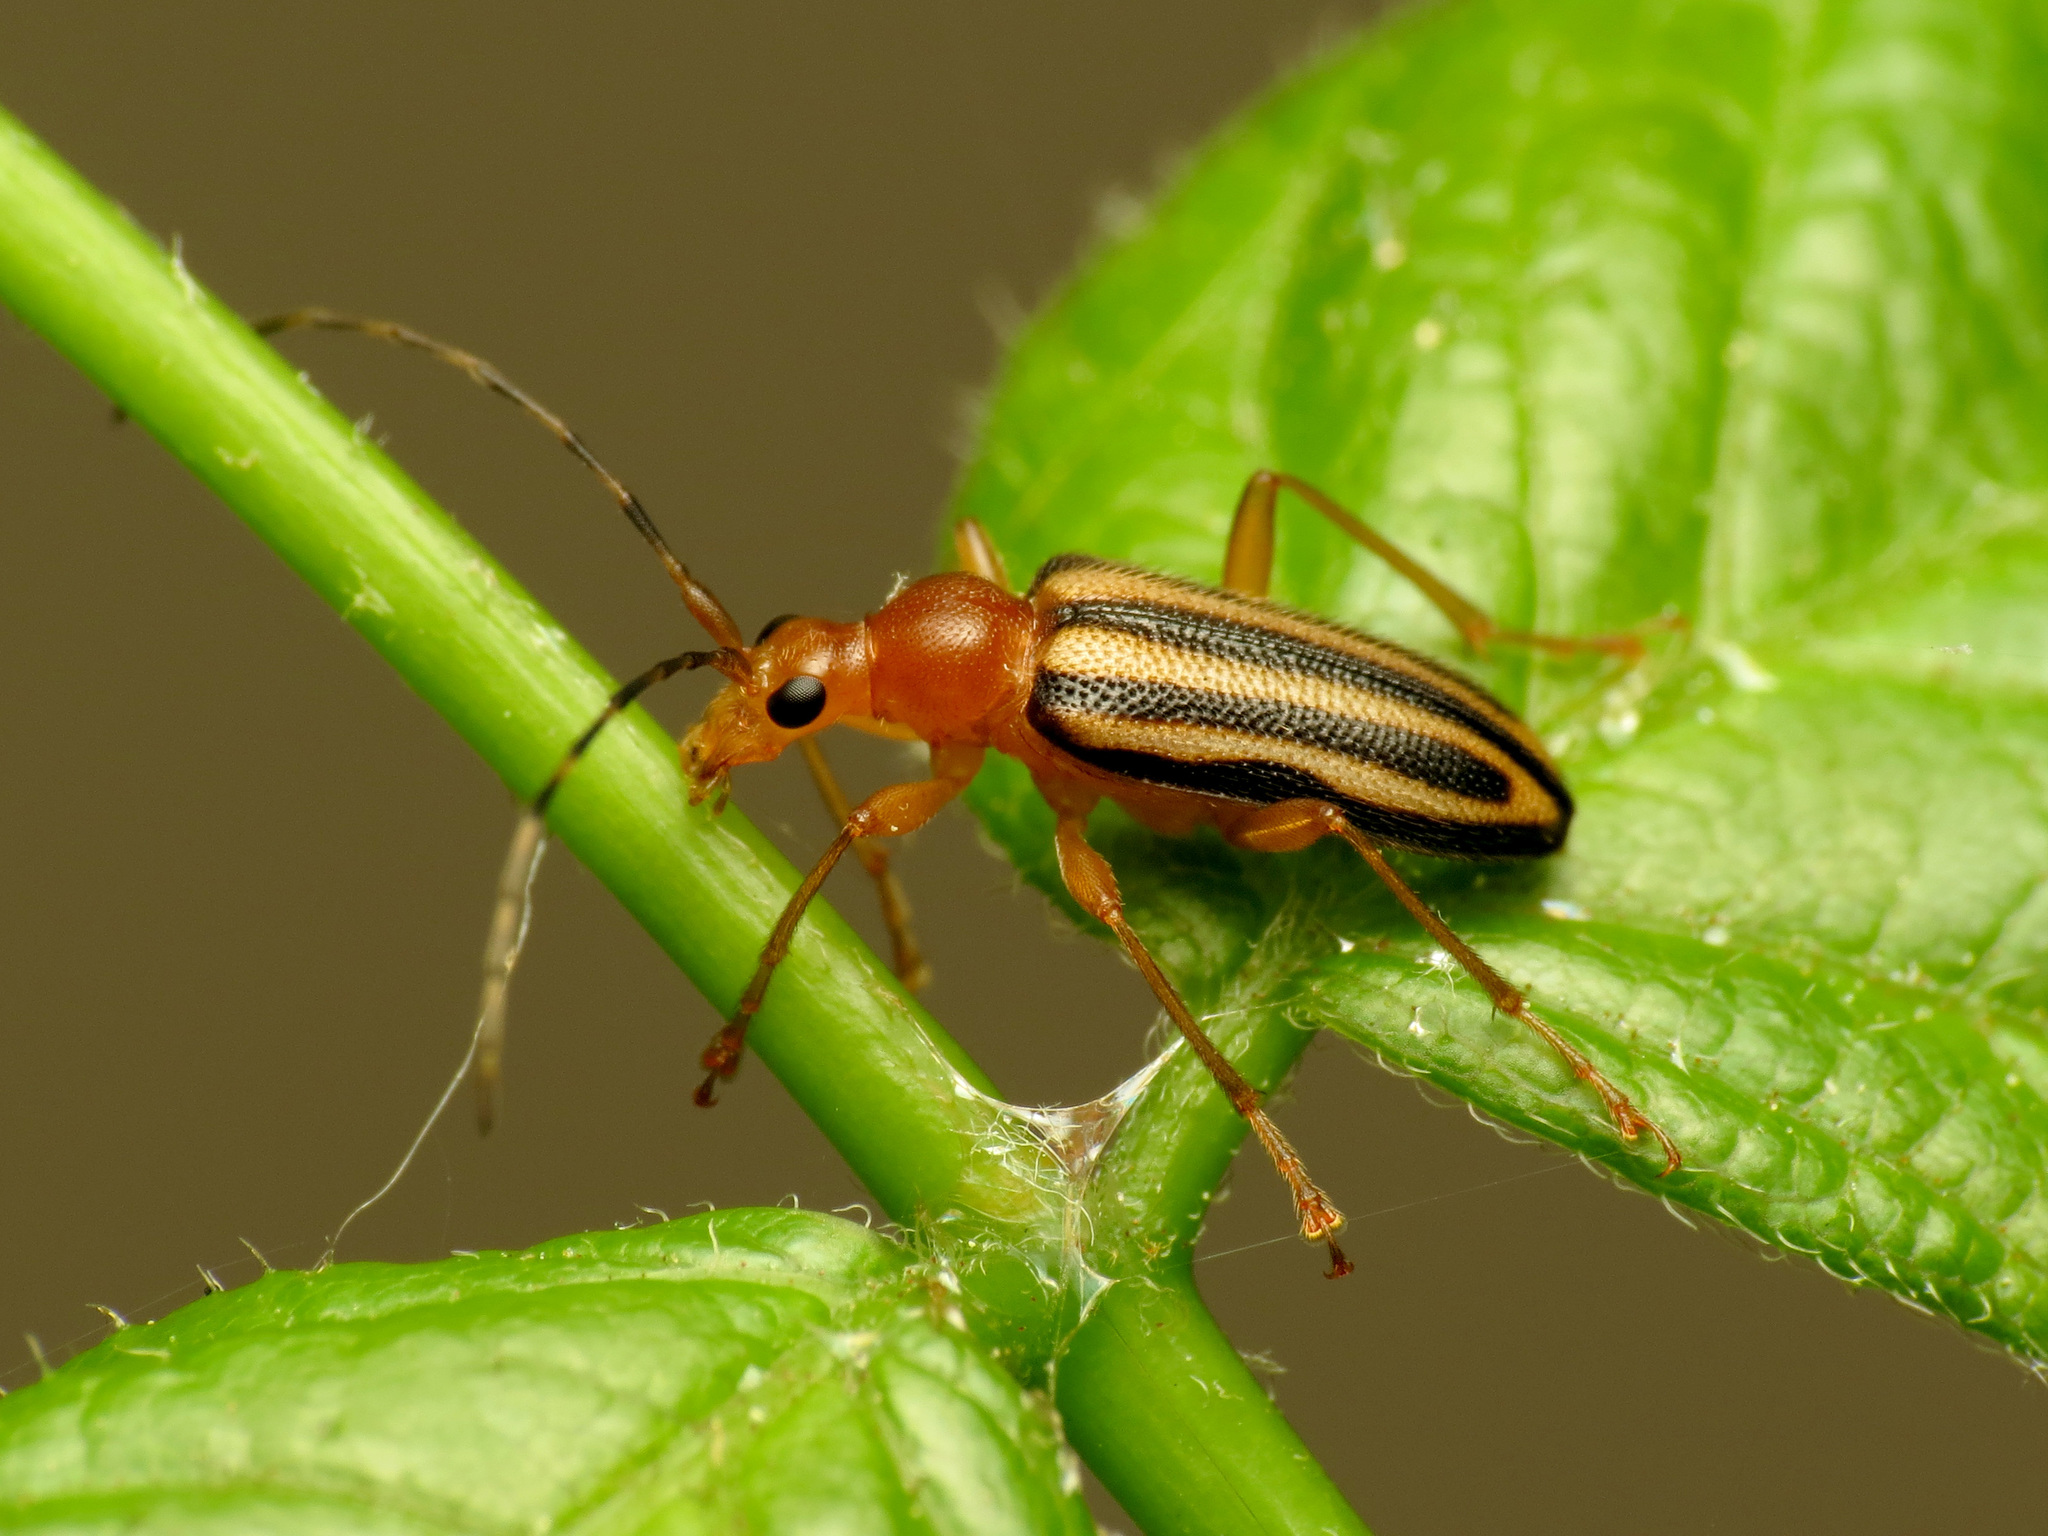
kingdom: Animalia
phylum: Arthropoda
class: Insecta
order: Coleoptera
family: Cerambycidae
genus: Metacmaeops
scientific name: Metacmaeops vittata
